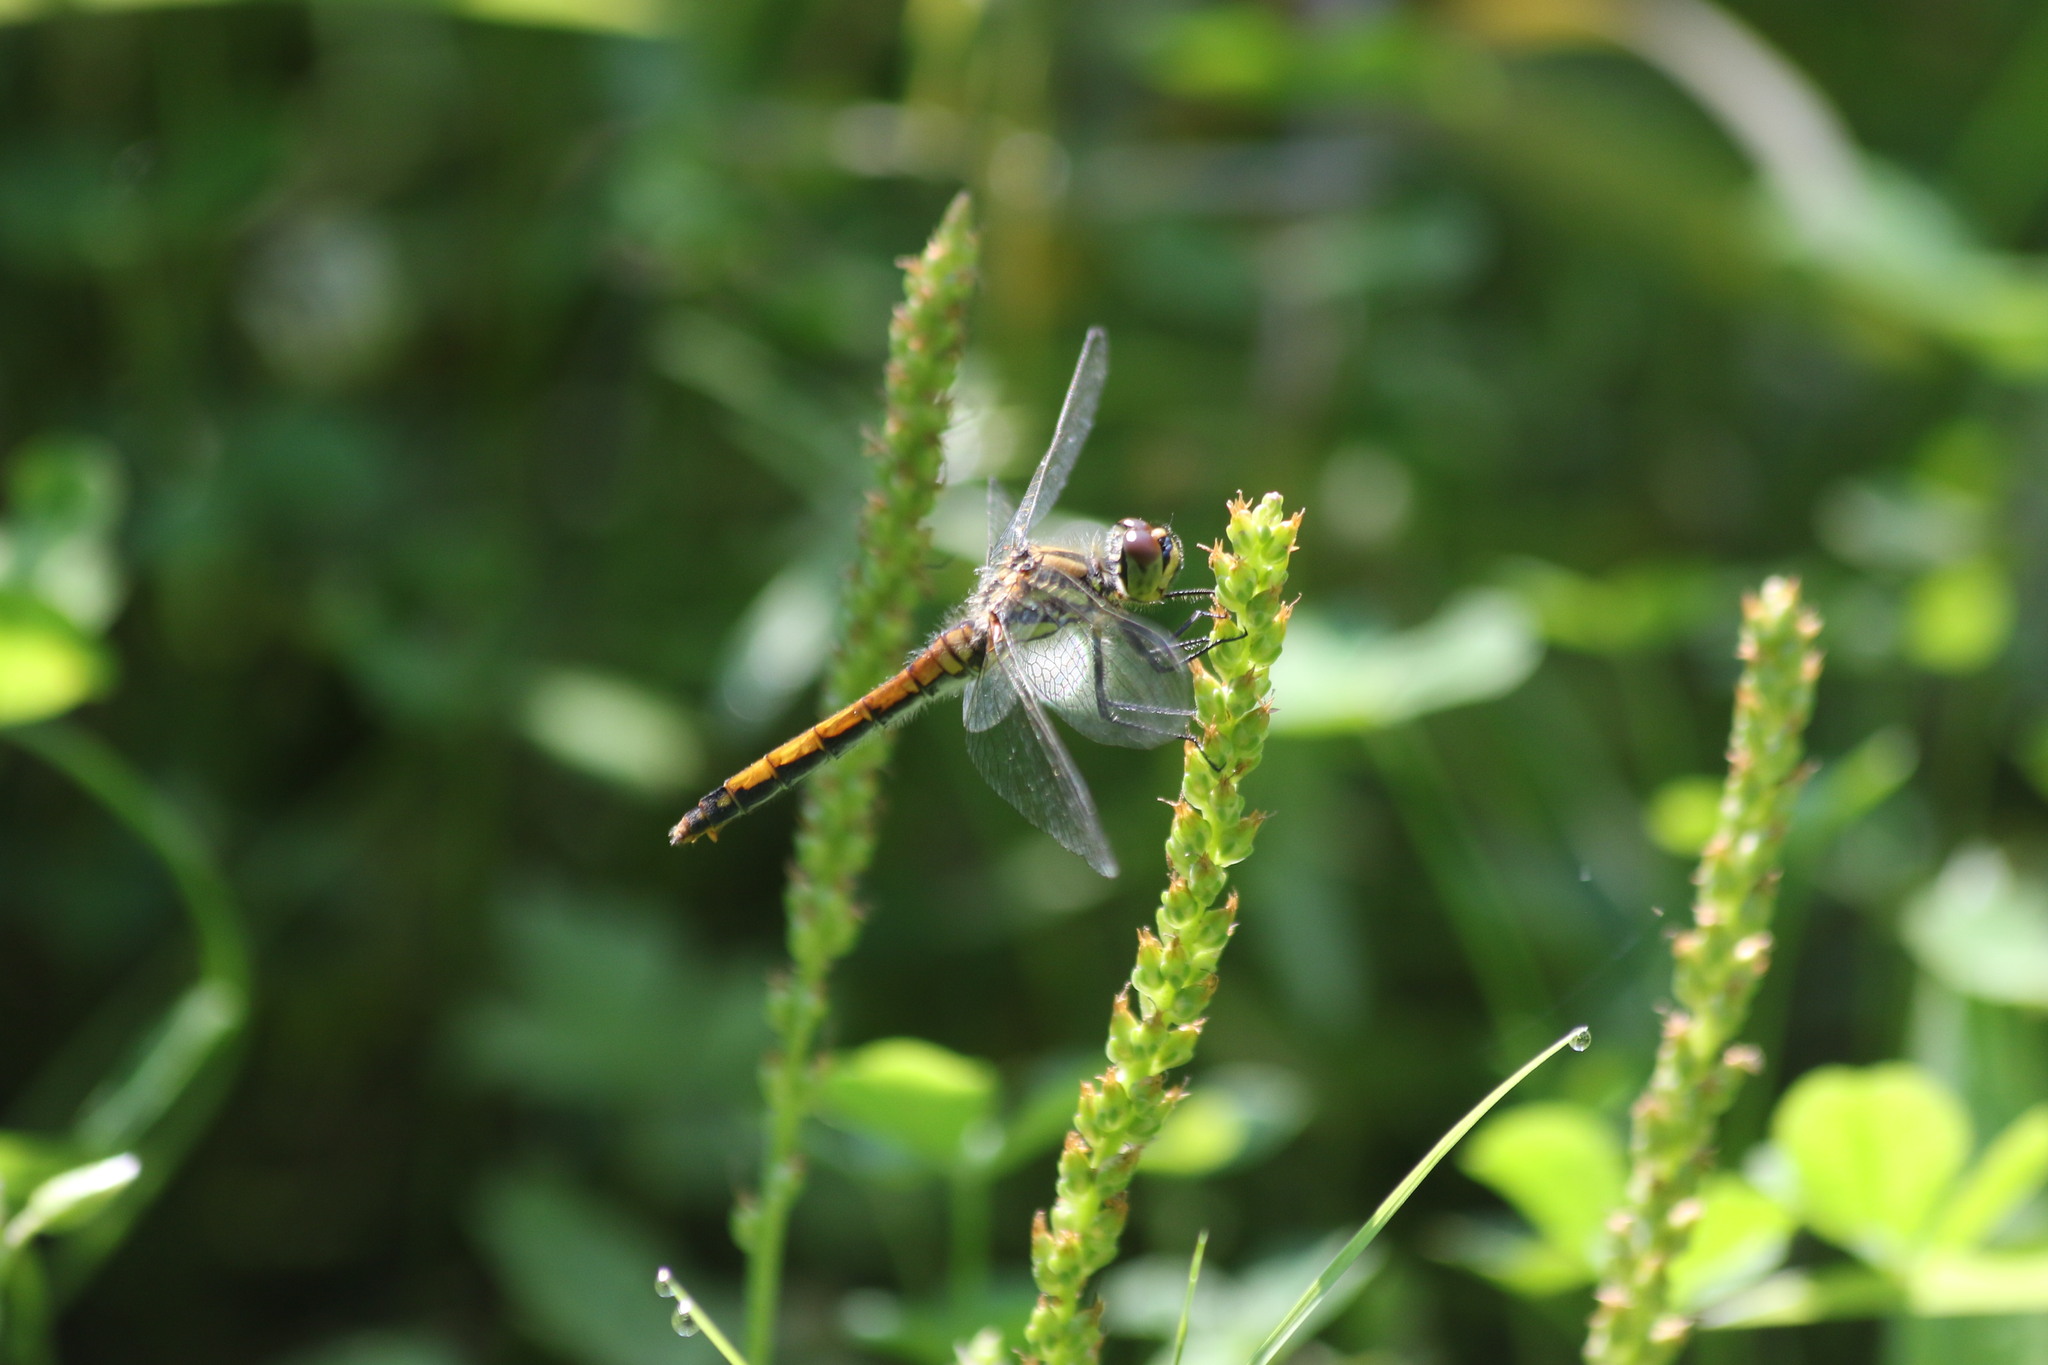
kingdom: Animalia
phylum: Arthropoda
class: Insecta
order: Odonata
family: Libellulidae
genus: Sympetrum
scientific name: Sympetrum danae
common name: Black darter
